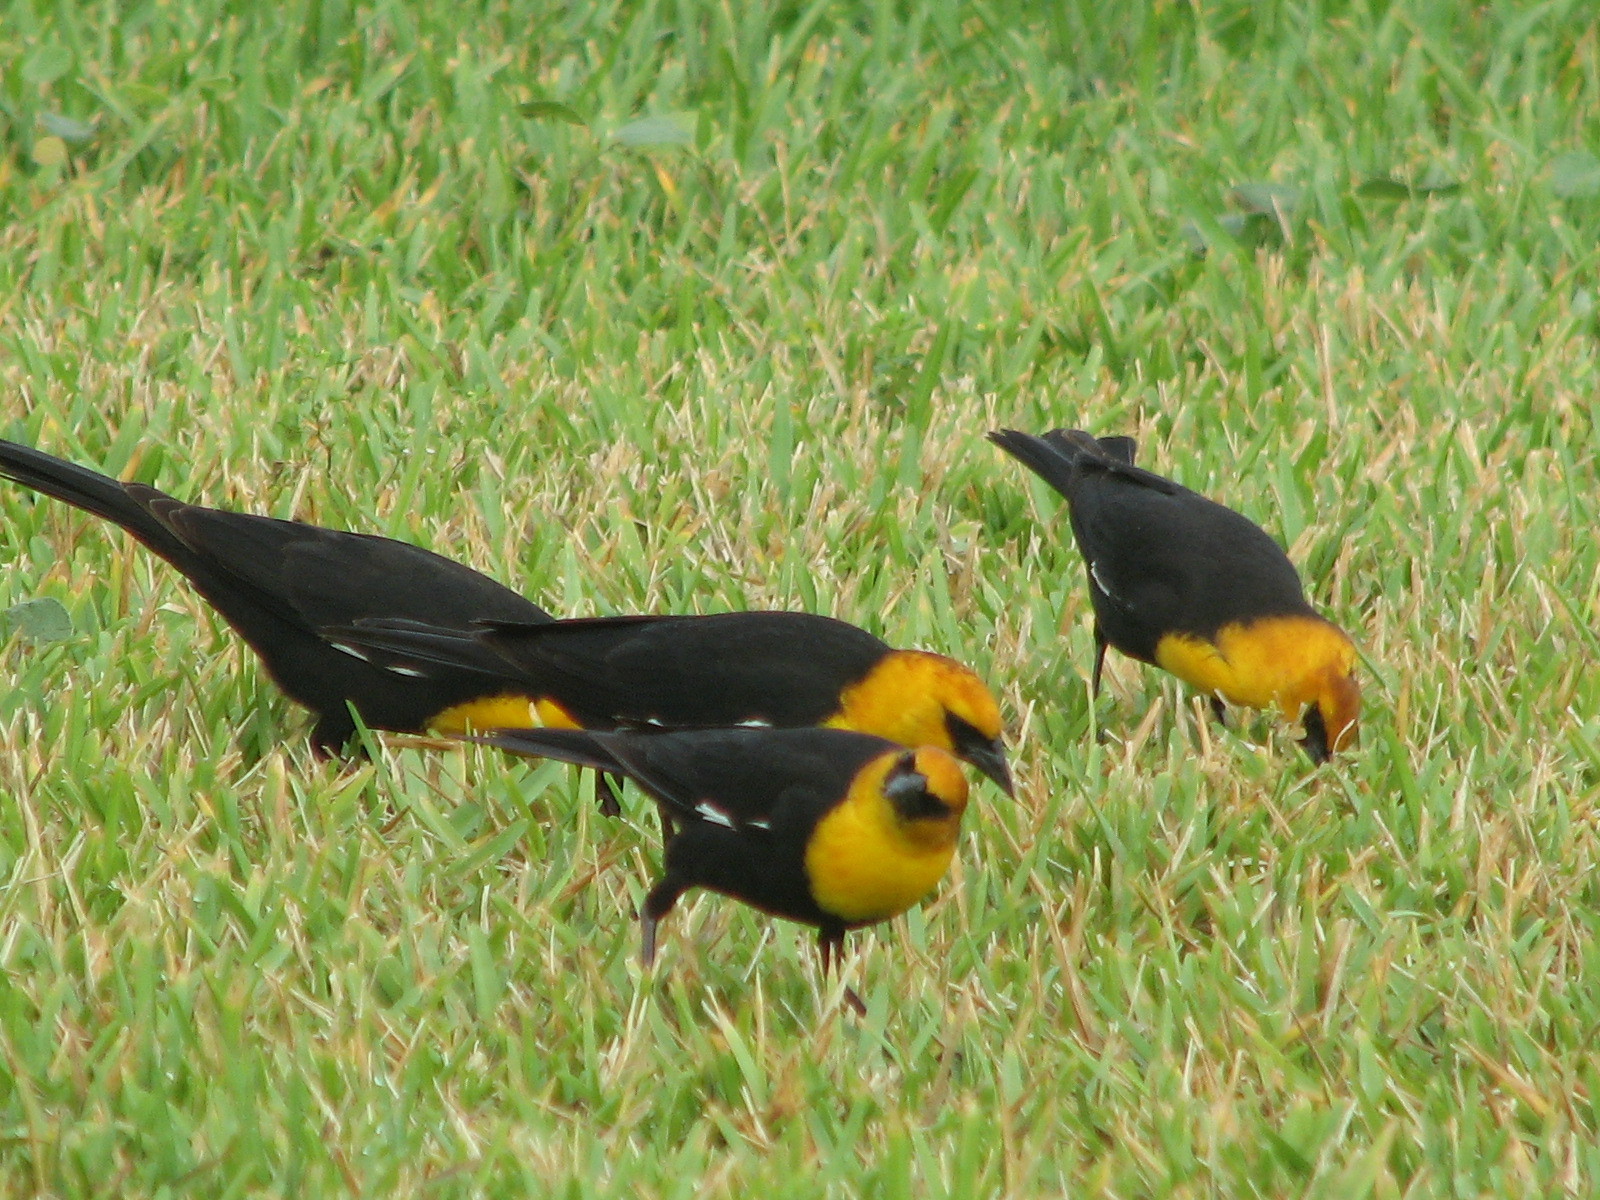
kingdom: Animalia
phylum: Chordata
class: Aves
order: Passeriformes
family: Icteridae
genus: Xanthocephalus
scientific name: Xanthocephalus xanthocephalus
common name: Yellow-headed blackbird
